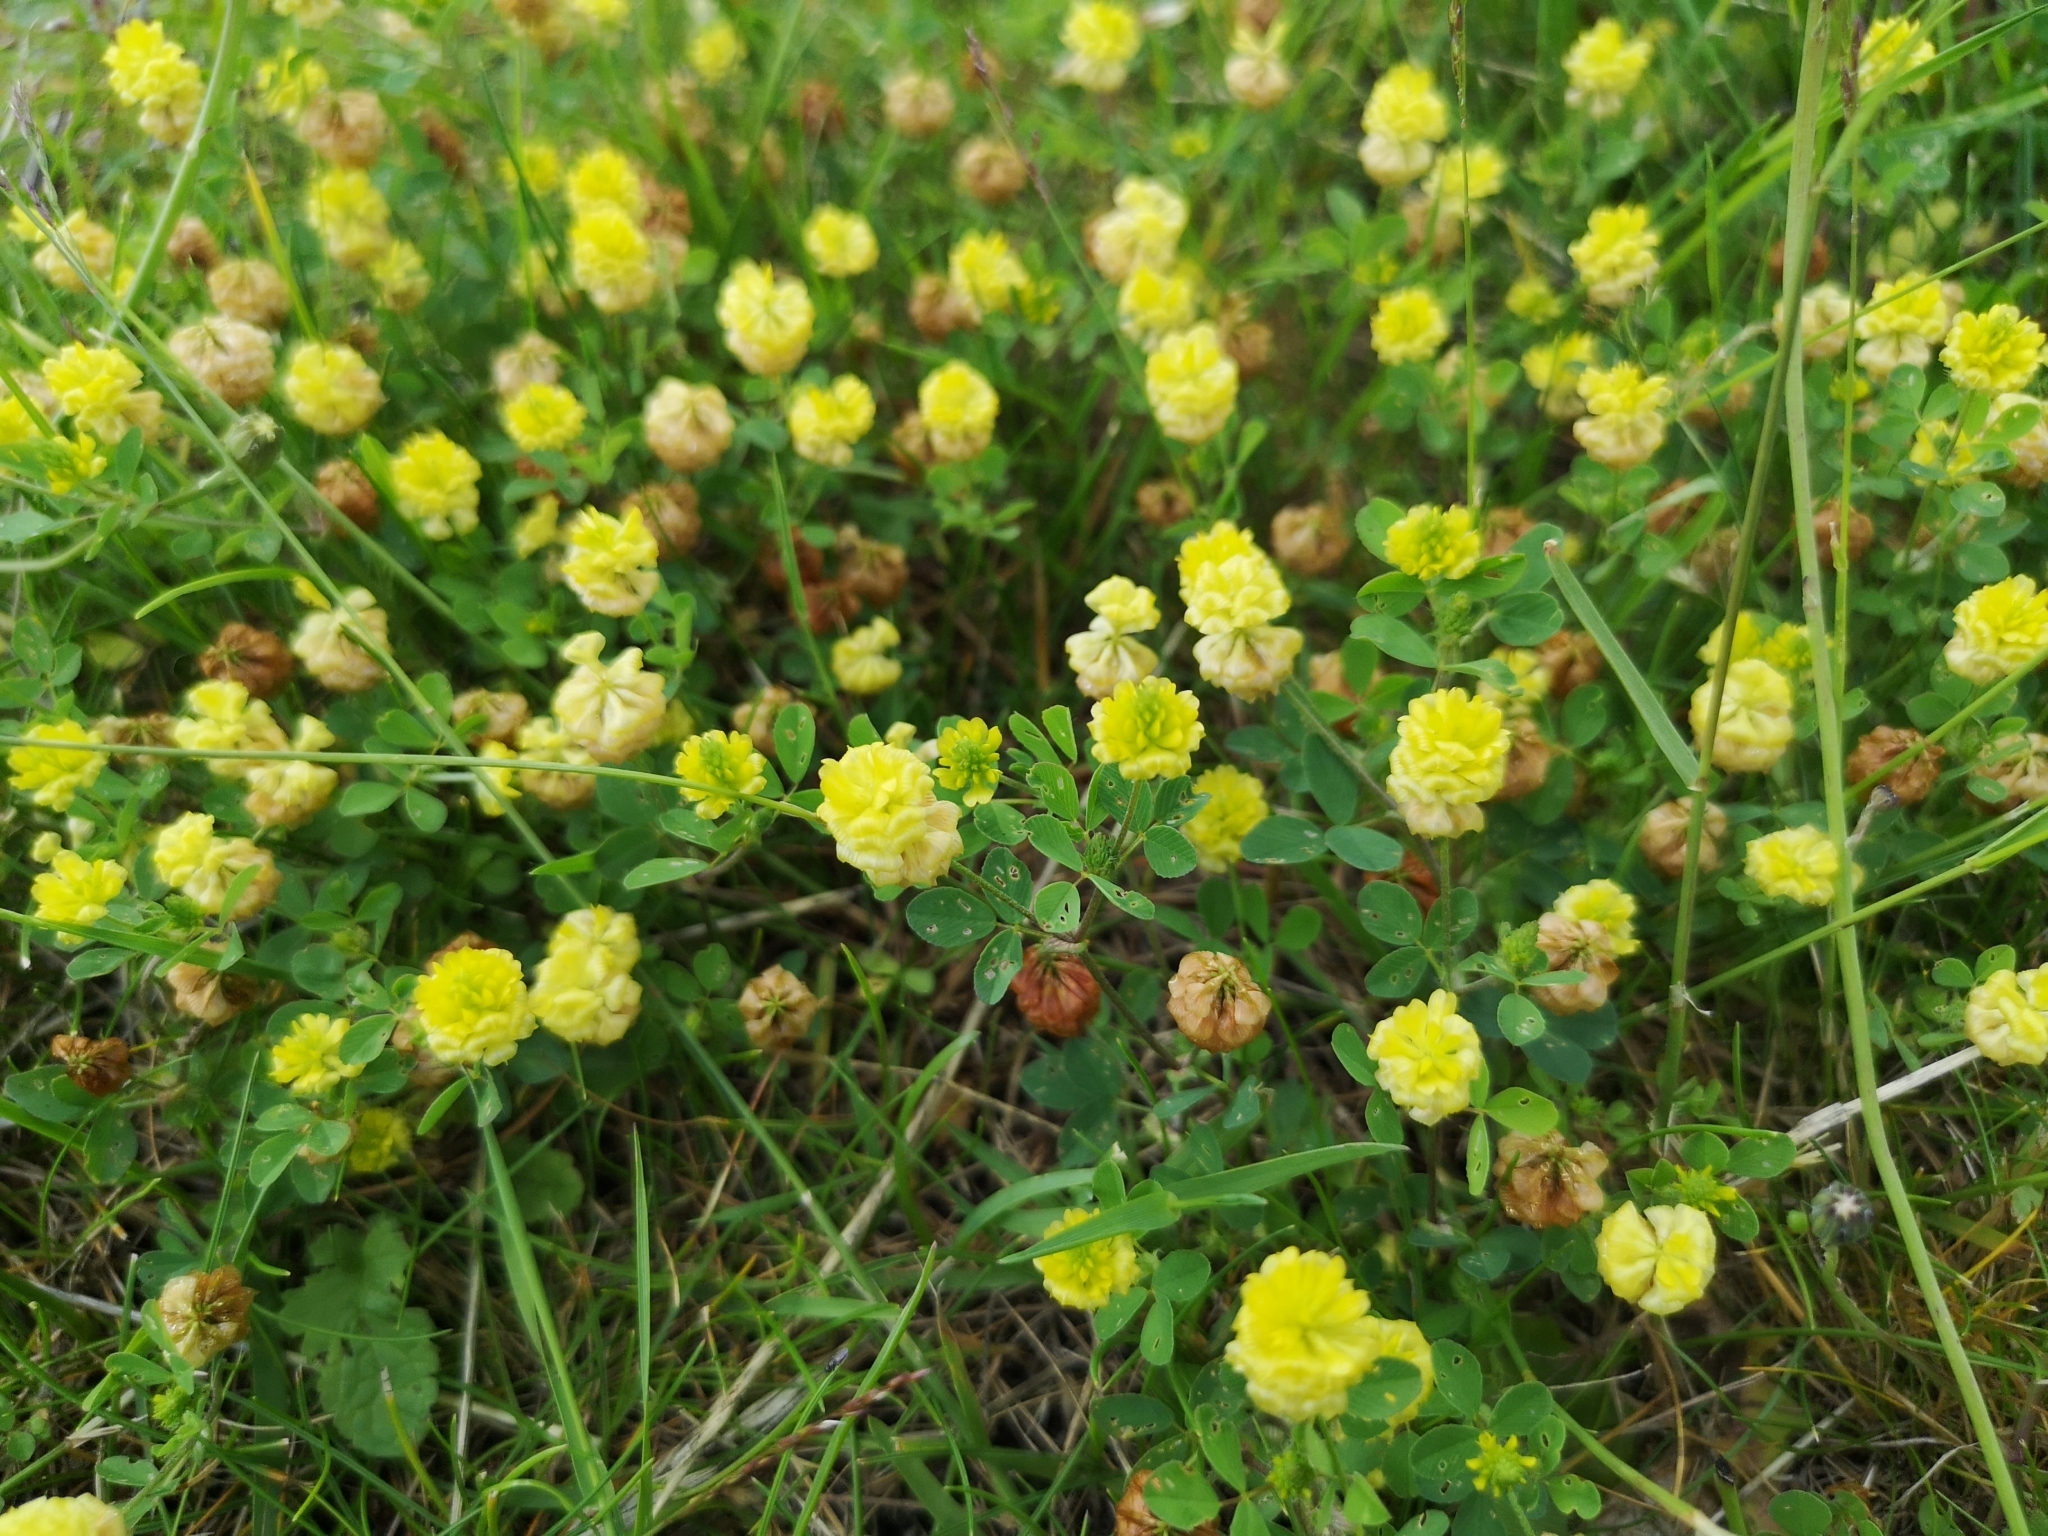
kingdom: Plantae
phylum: Tracheophyta
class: Magnoliopsida
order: Fabales
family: Fabaceae
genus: Trifolium
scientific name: Trifolium campestre
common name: Field clover
